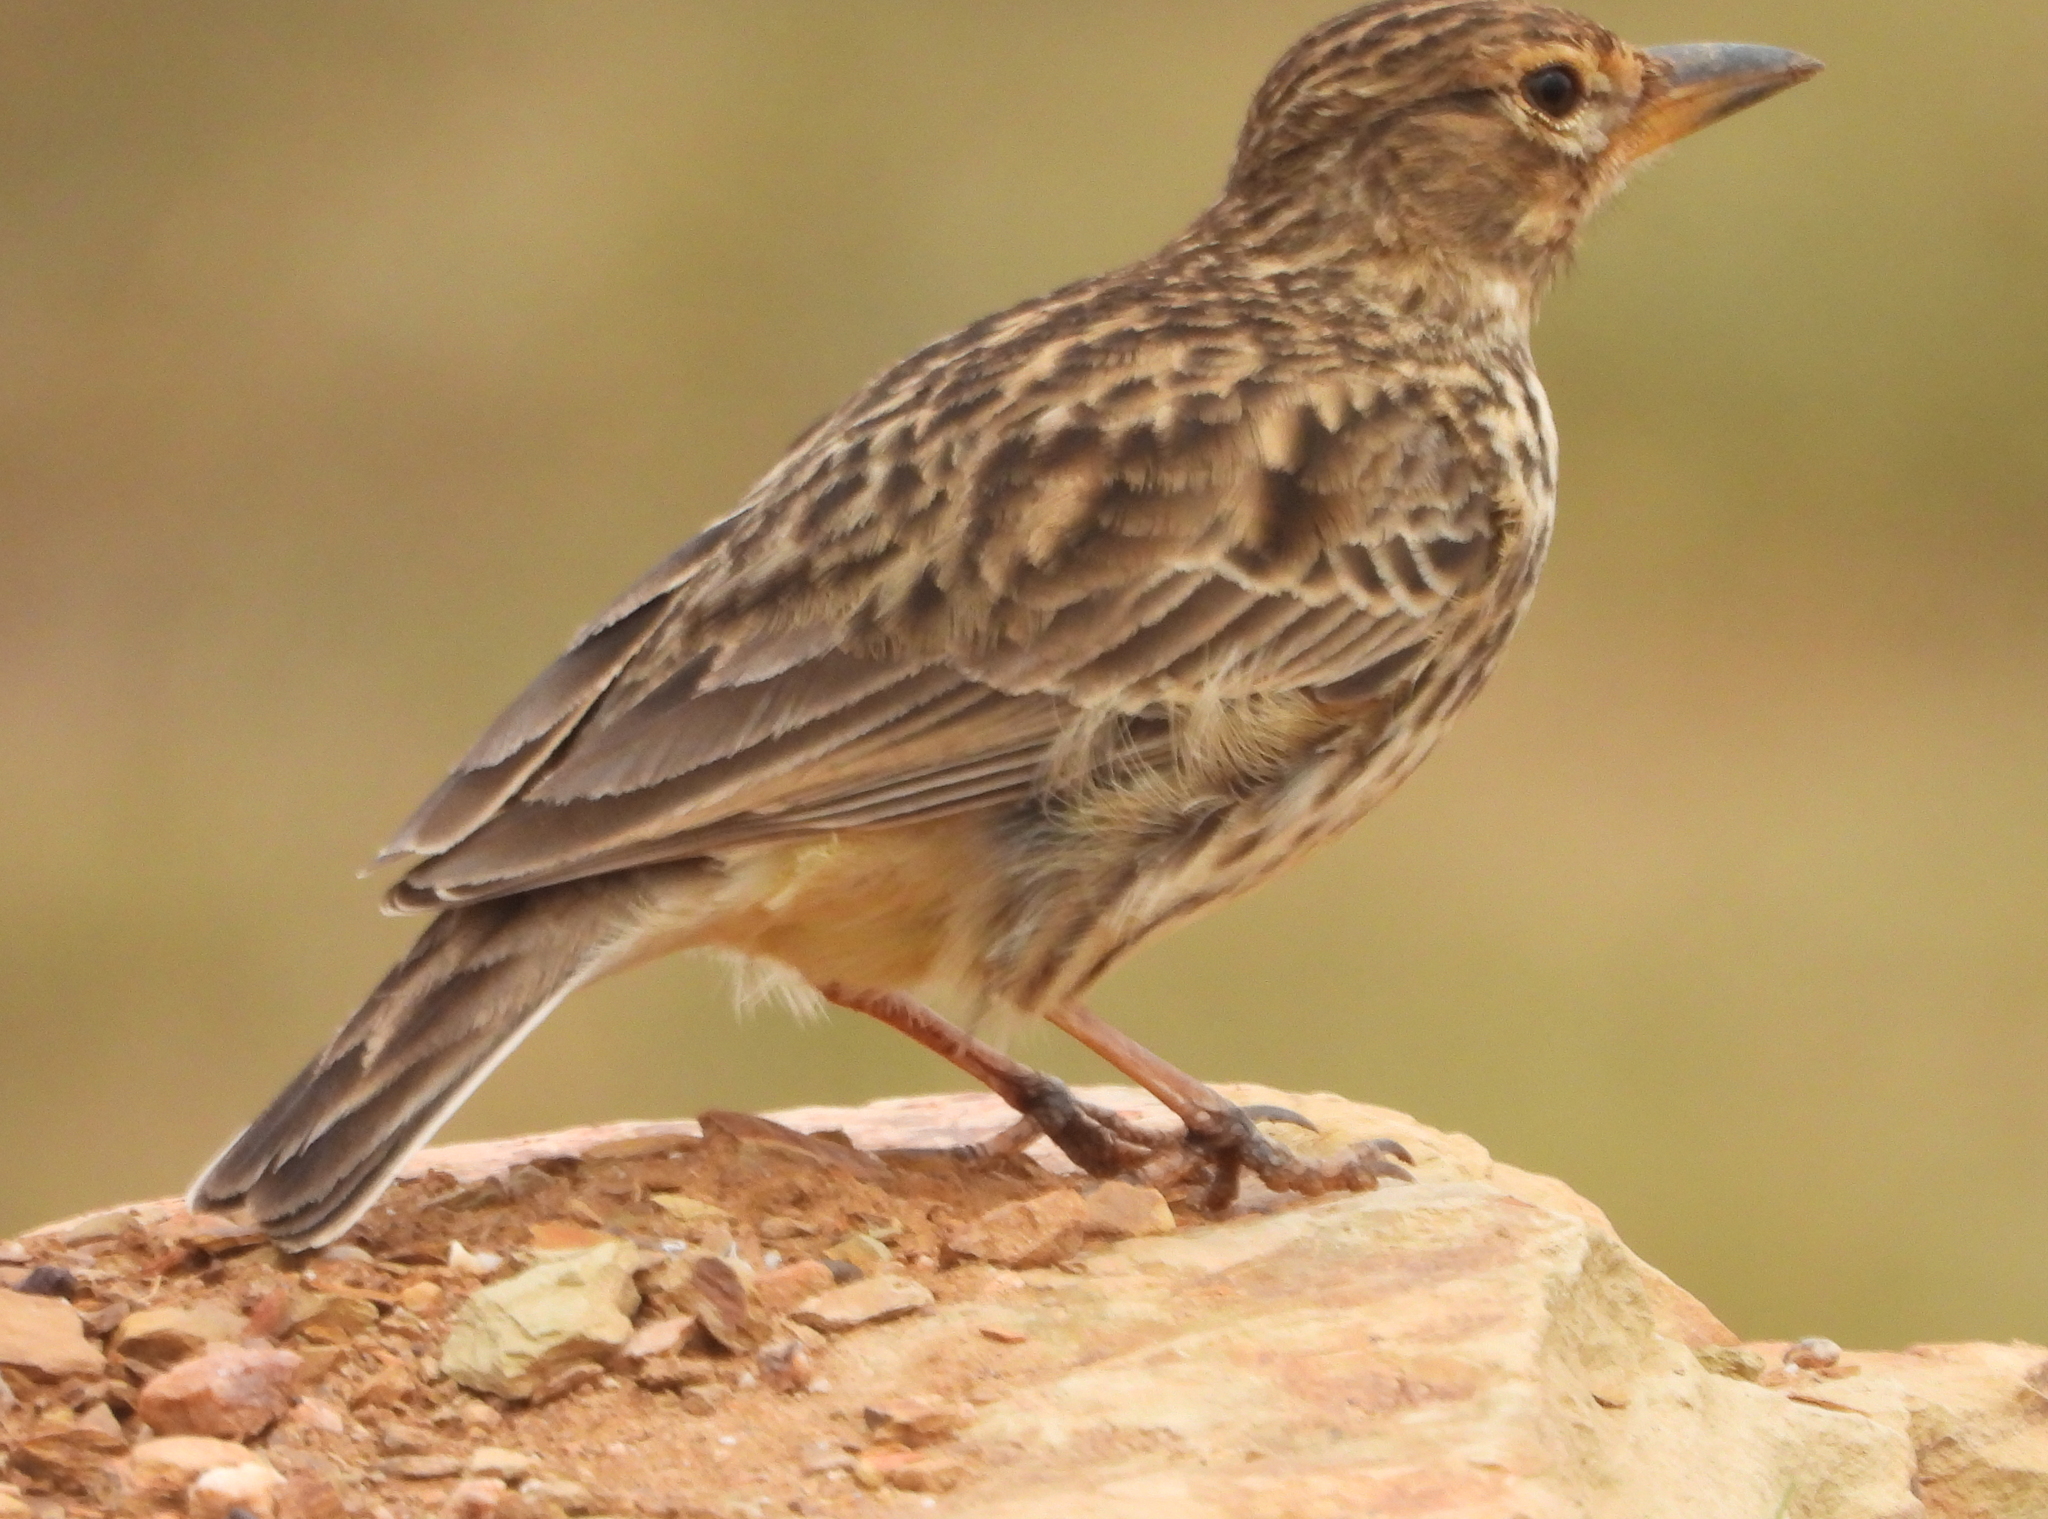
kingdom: Animalia
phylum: Chordata
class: Aves
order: Passeriformes
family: Alaudidae
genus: Galerida
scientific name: Galerida magnirostris
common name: Large-billed lark
